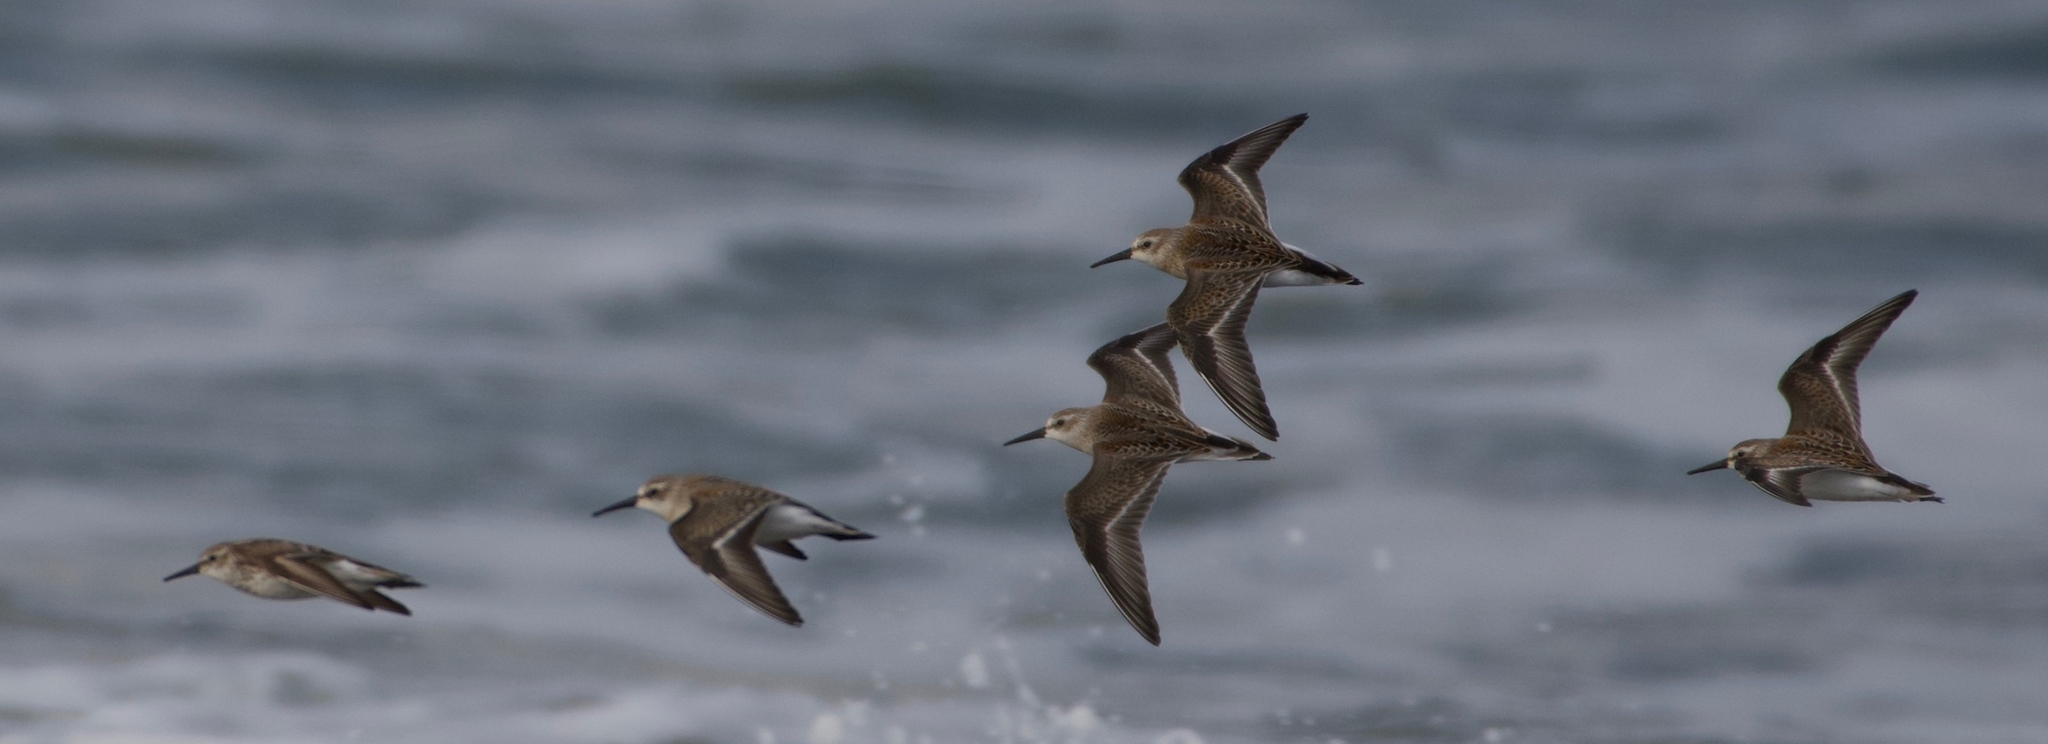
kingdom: Animalia
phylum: Chordata
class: Aves
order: Charadriiformes
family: Scolopacidae
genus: Calidris
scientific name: Calidris mauri
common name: Western sandpiper
